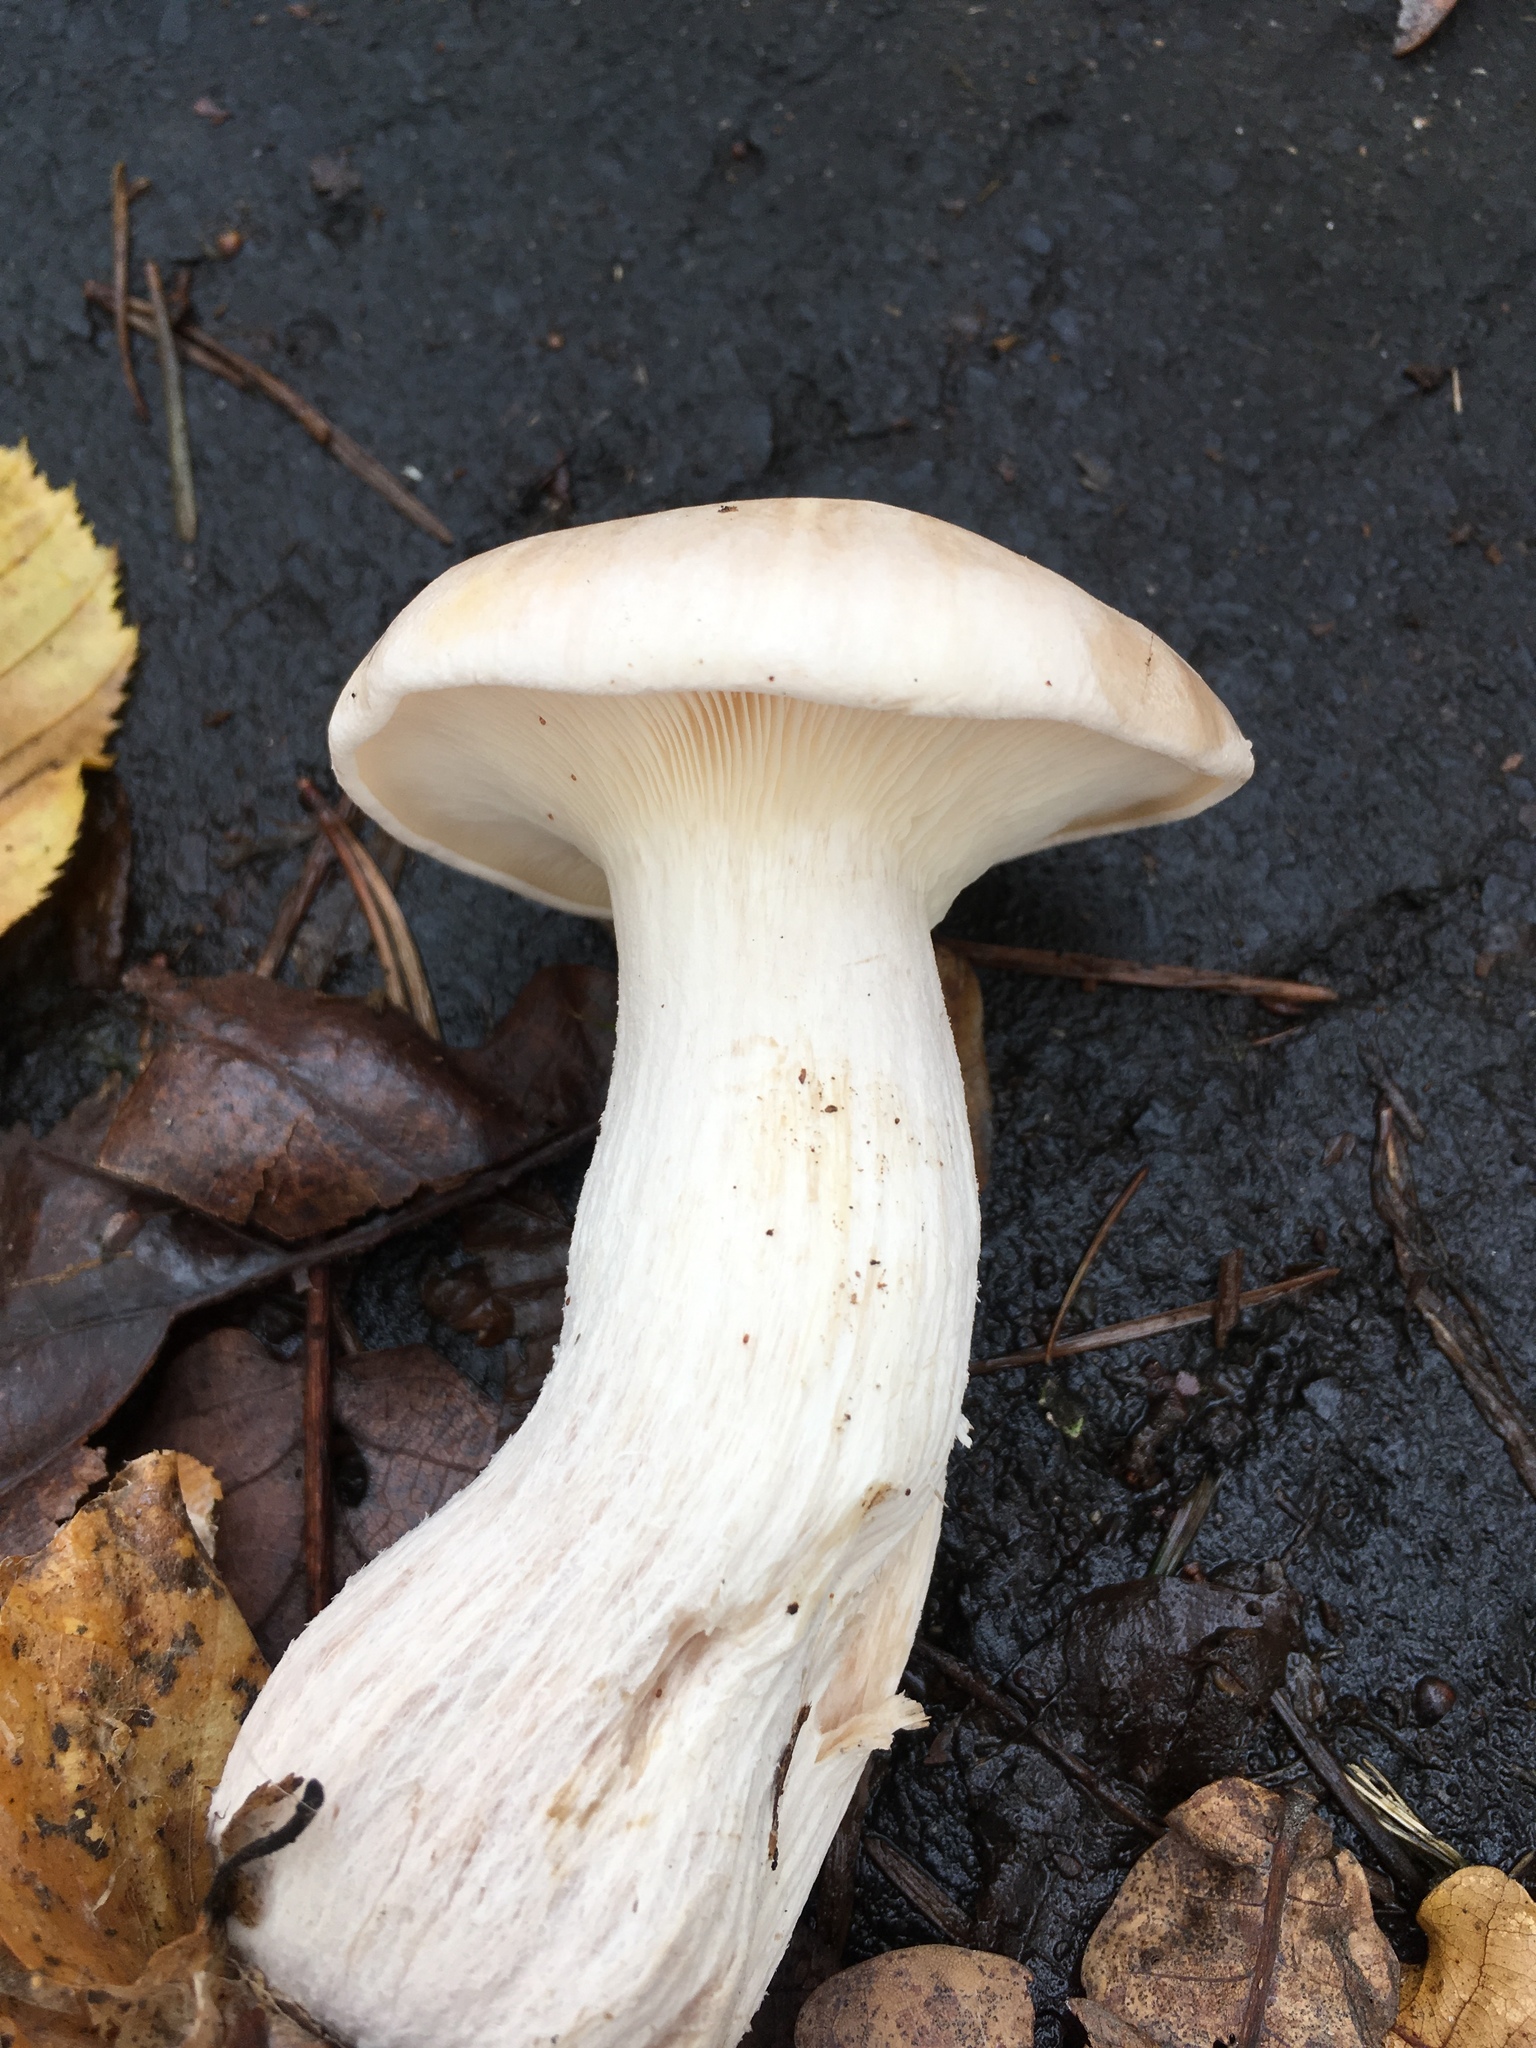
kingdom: Fungi
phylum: Basidiomycota
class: Agaricomycetes
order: Agaricales
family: Tricholomataceae
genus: Clitocybe
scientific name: Clitocybe nebularis
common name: Clouded agaric
